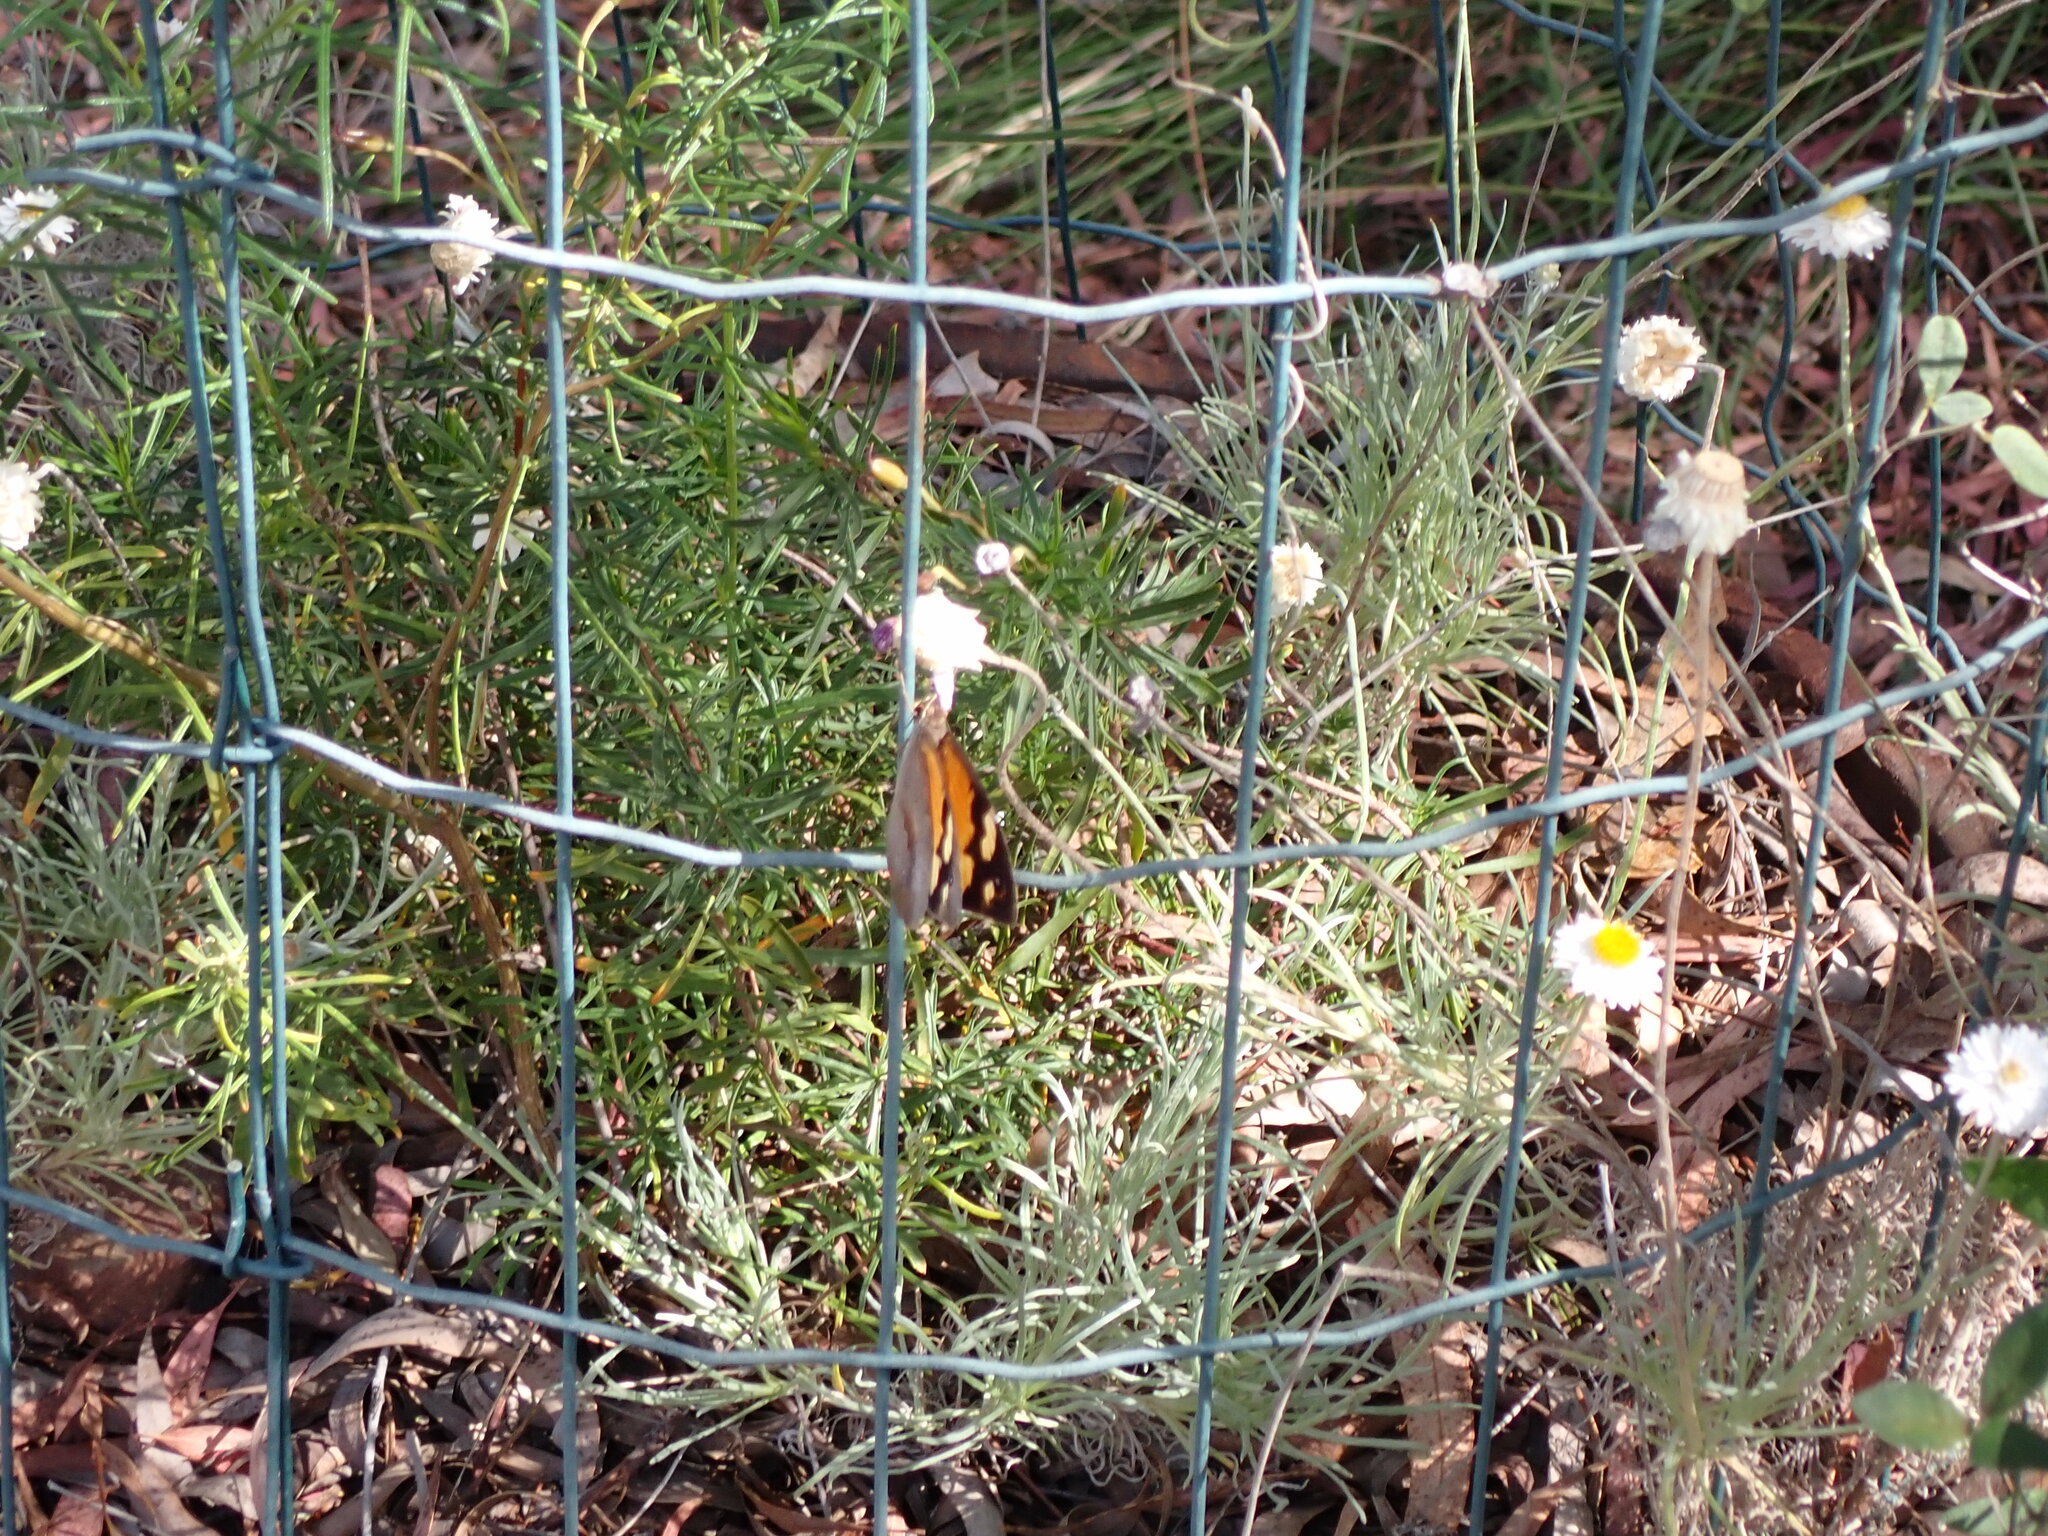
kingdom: Animalia
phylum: Arthropoda
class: Insecta
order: Lepidoptera
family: Nymphalidae
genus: Heteronympha
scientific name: Heteronympha merope
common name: Common brown
